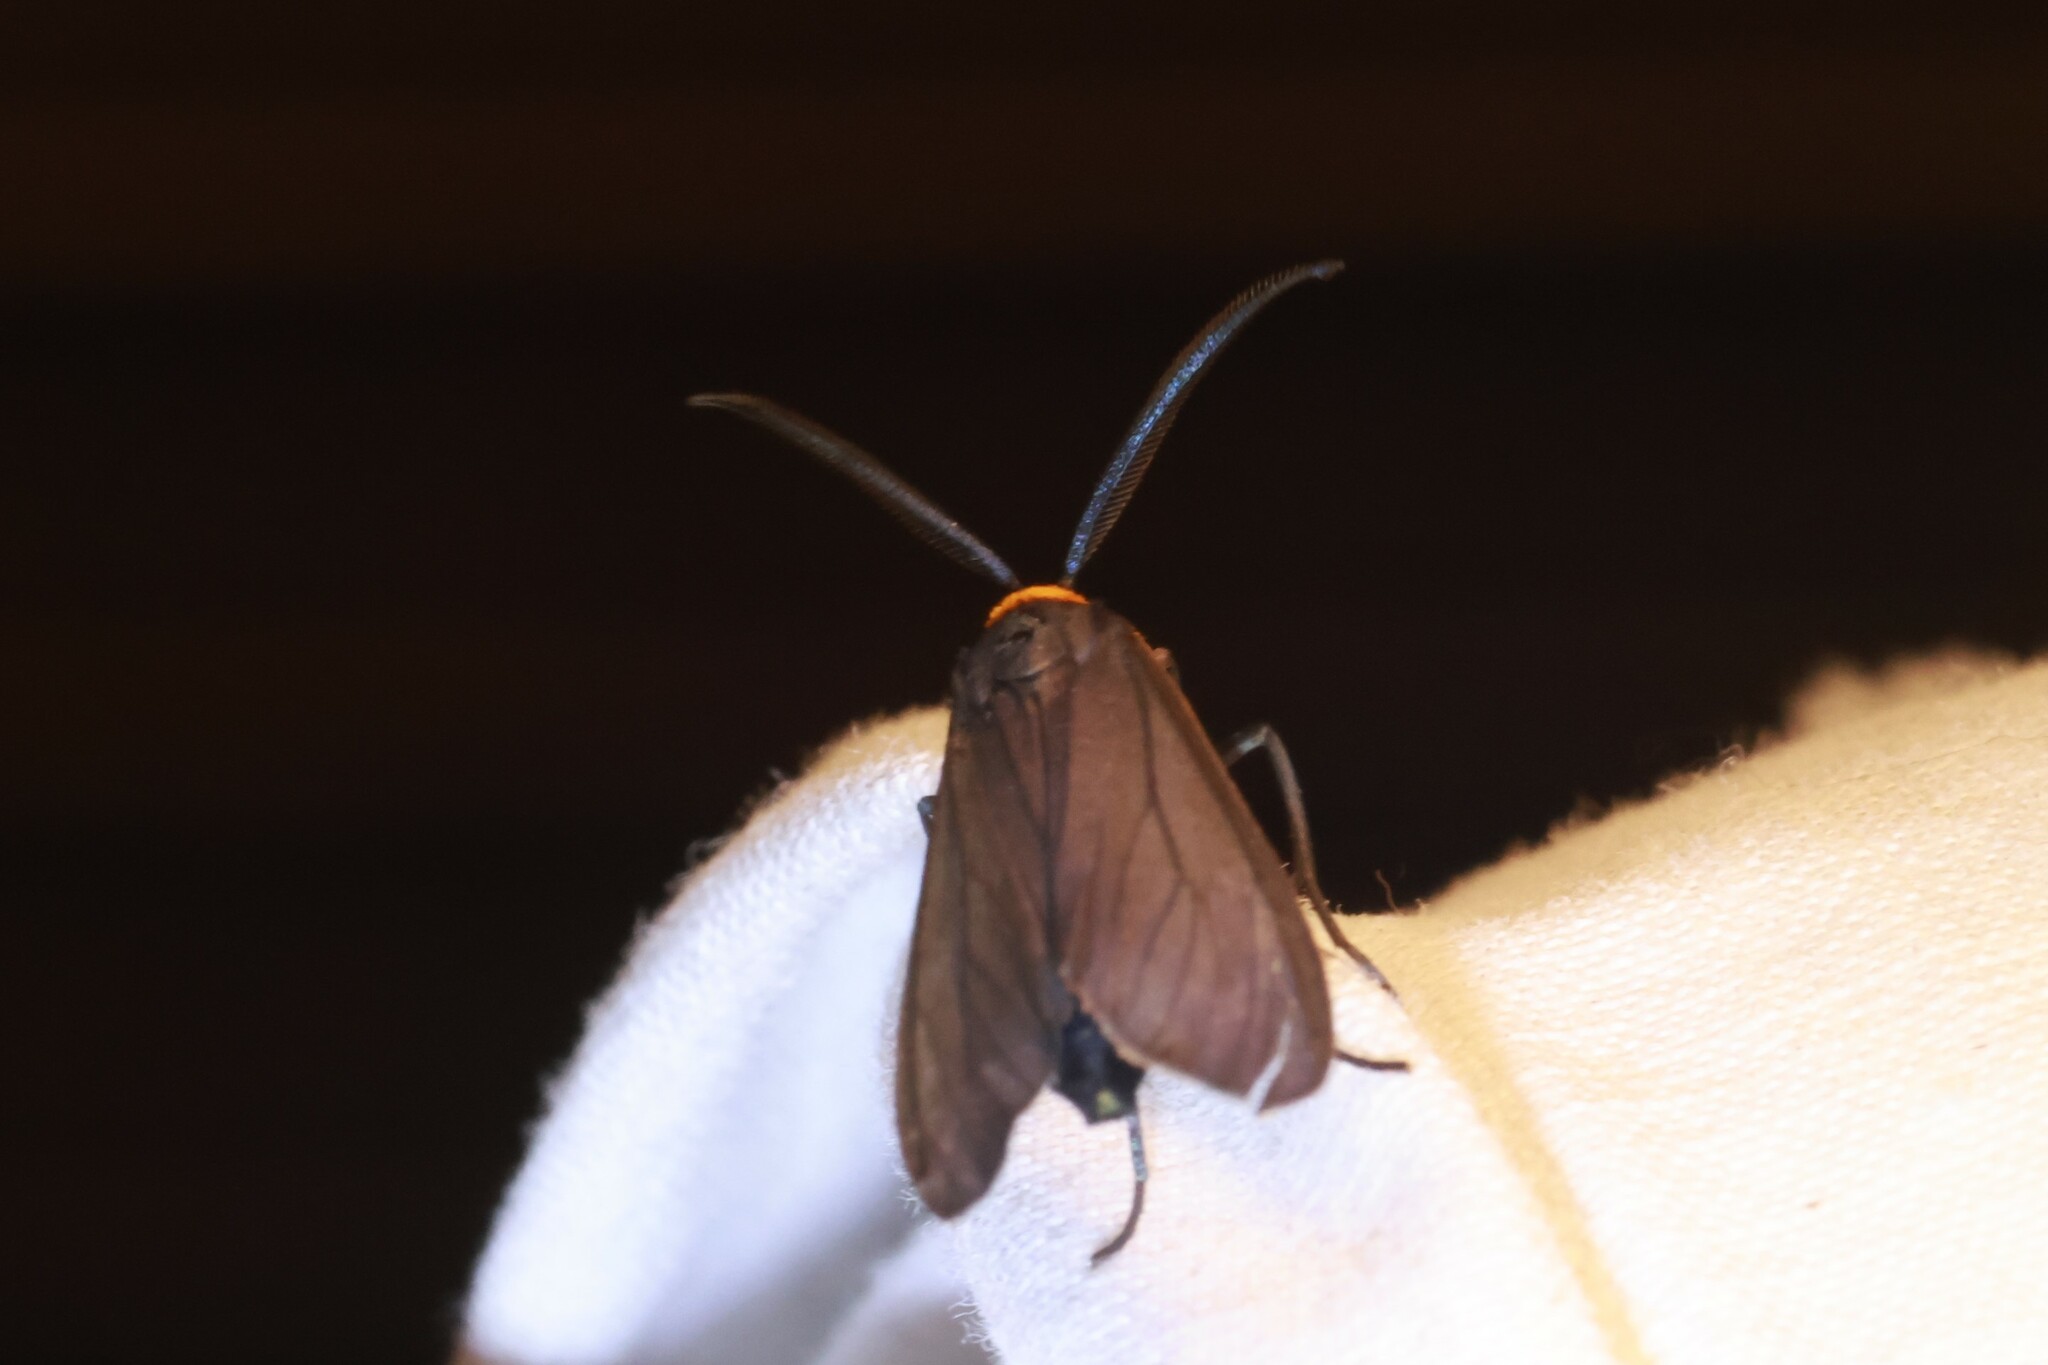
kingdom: Animalia
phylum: Arthropoda
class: Insecta
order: Lepidoptera
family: Erebidae
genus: Cisseps
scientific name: Cisseps fulvicollis
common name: Yellow-collared scape moth
